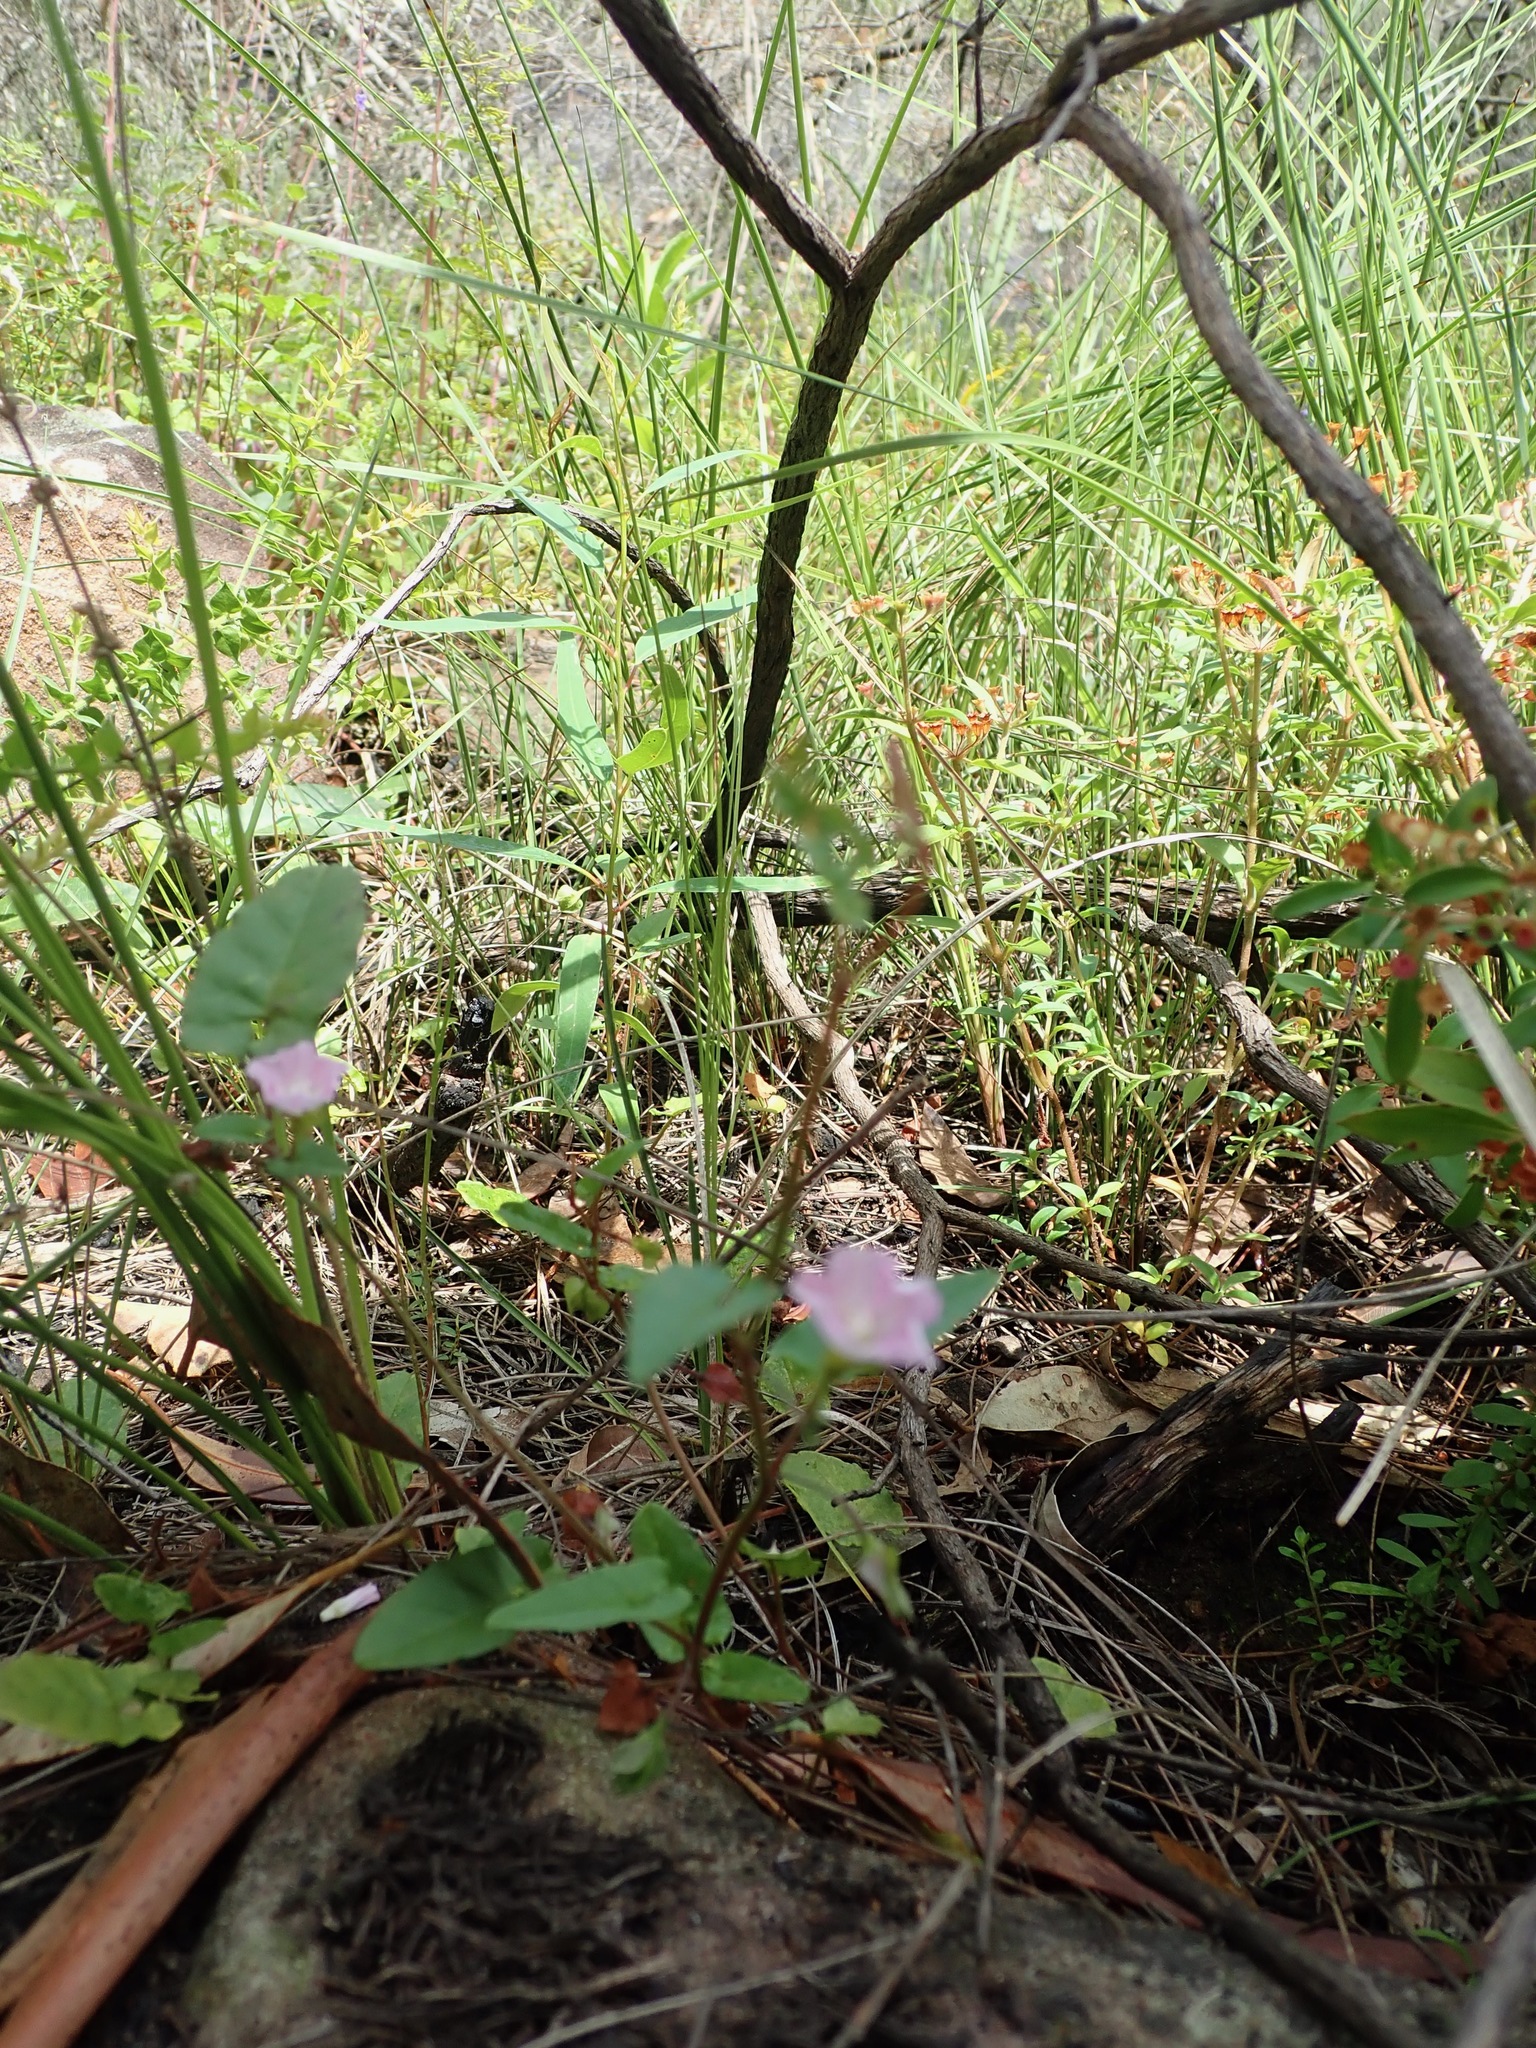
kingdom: Plantae
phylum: Tracheophyta
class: Magnoliopsida
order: Solanales
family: Convolvulaceae
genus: Polymeria
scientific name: Polymeria calycina
